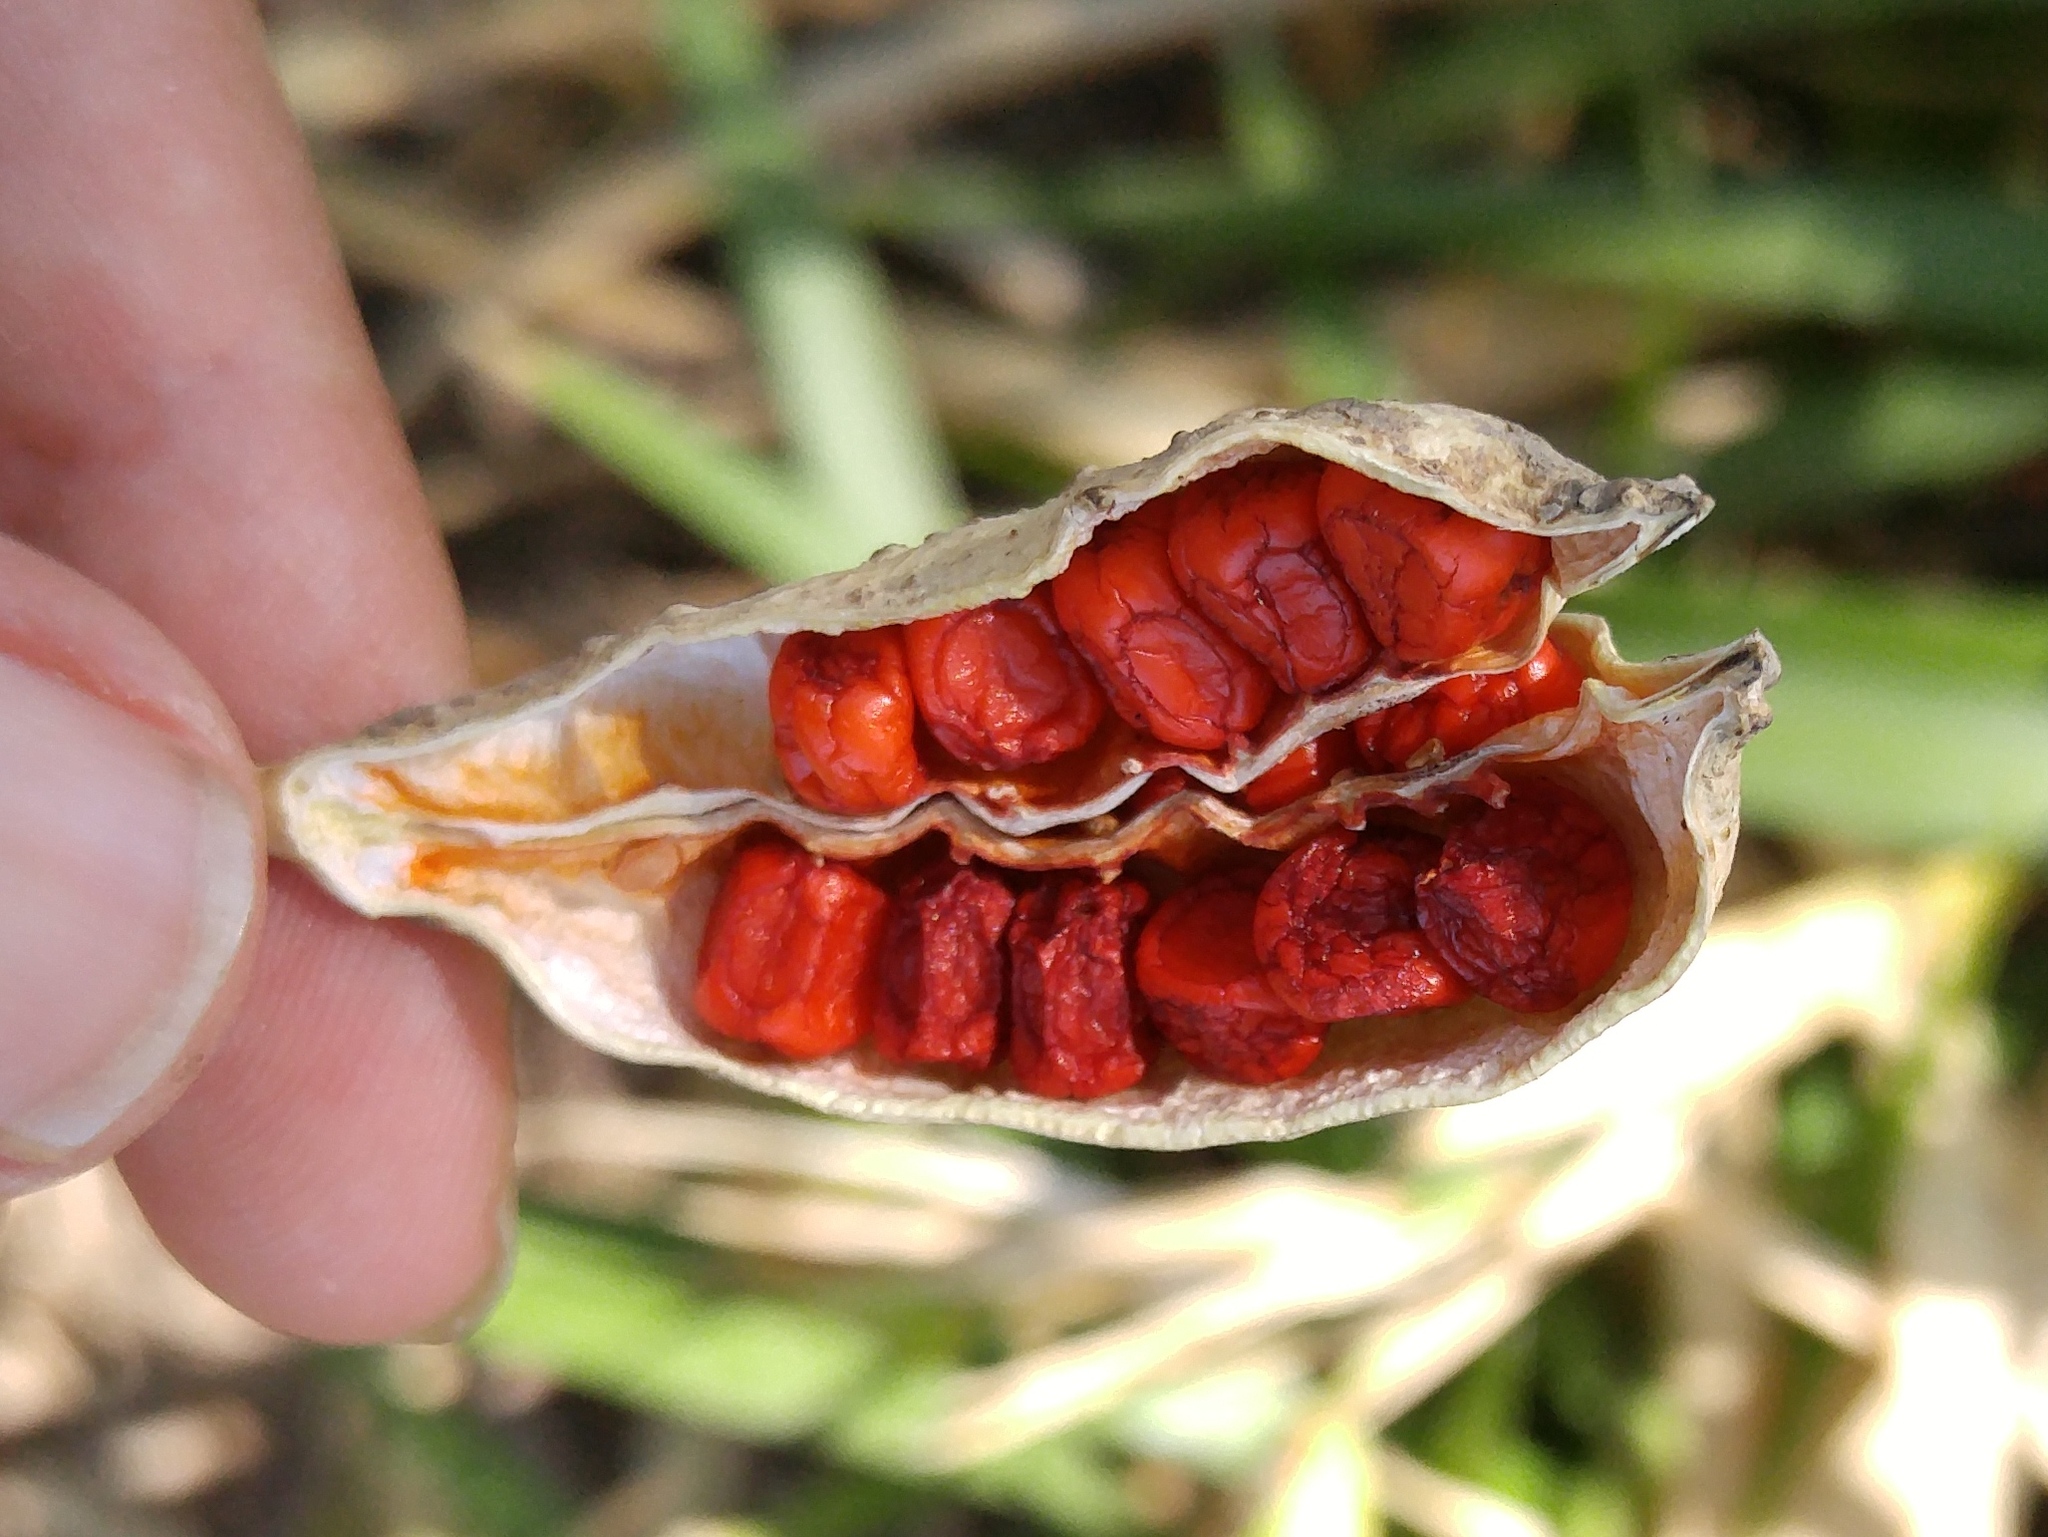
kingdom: Plantae
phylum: Tracheophyta
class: Liliopsida
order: Asparagales
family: Iridaceae
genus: Iris
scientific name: Iris foetidissima
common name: Stinking iris
